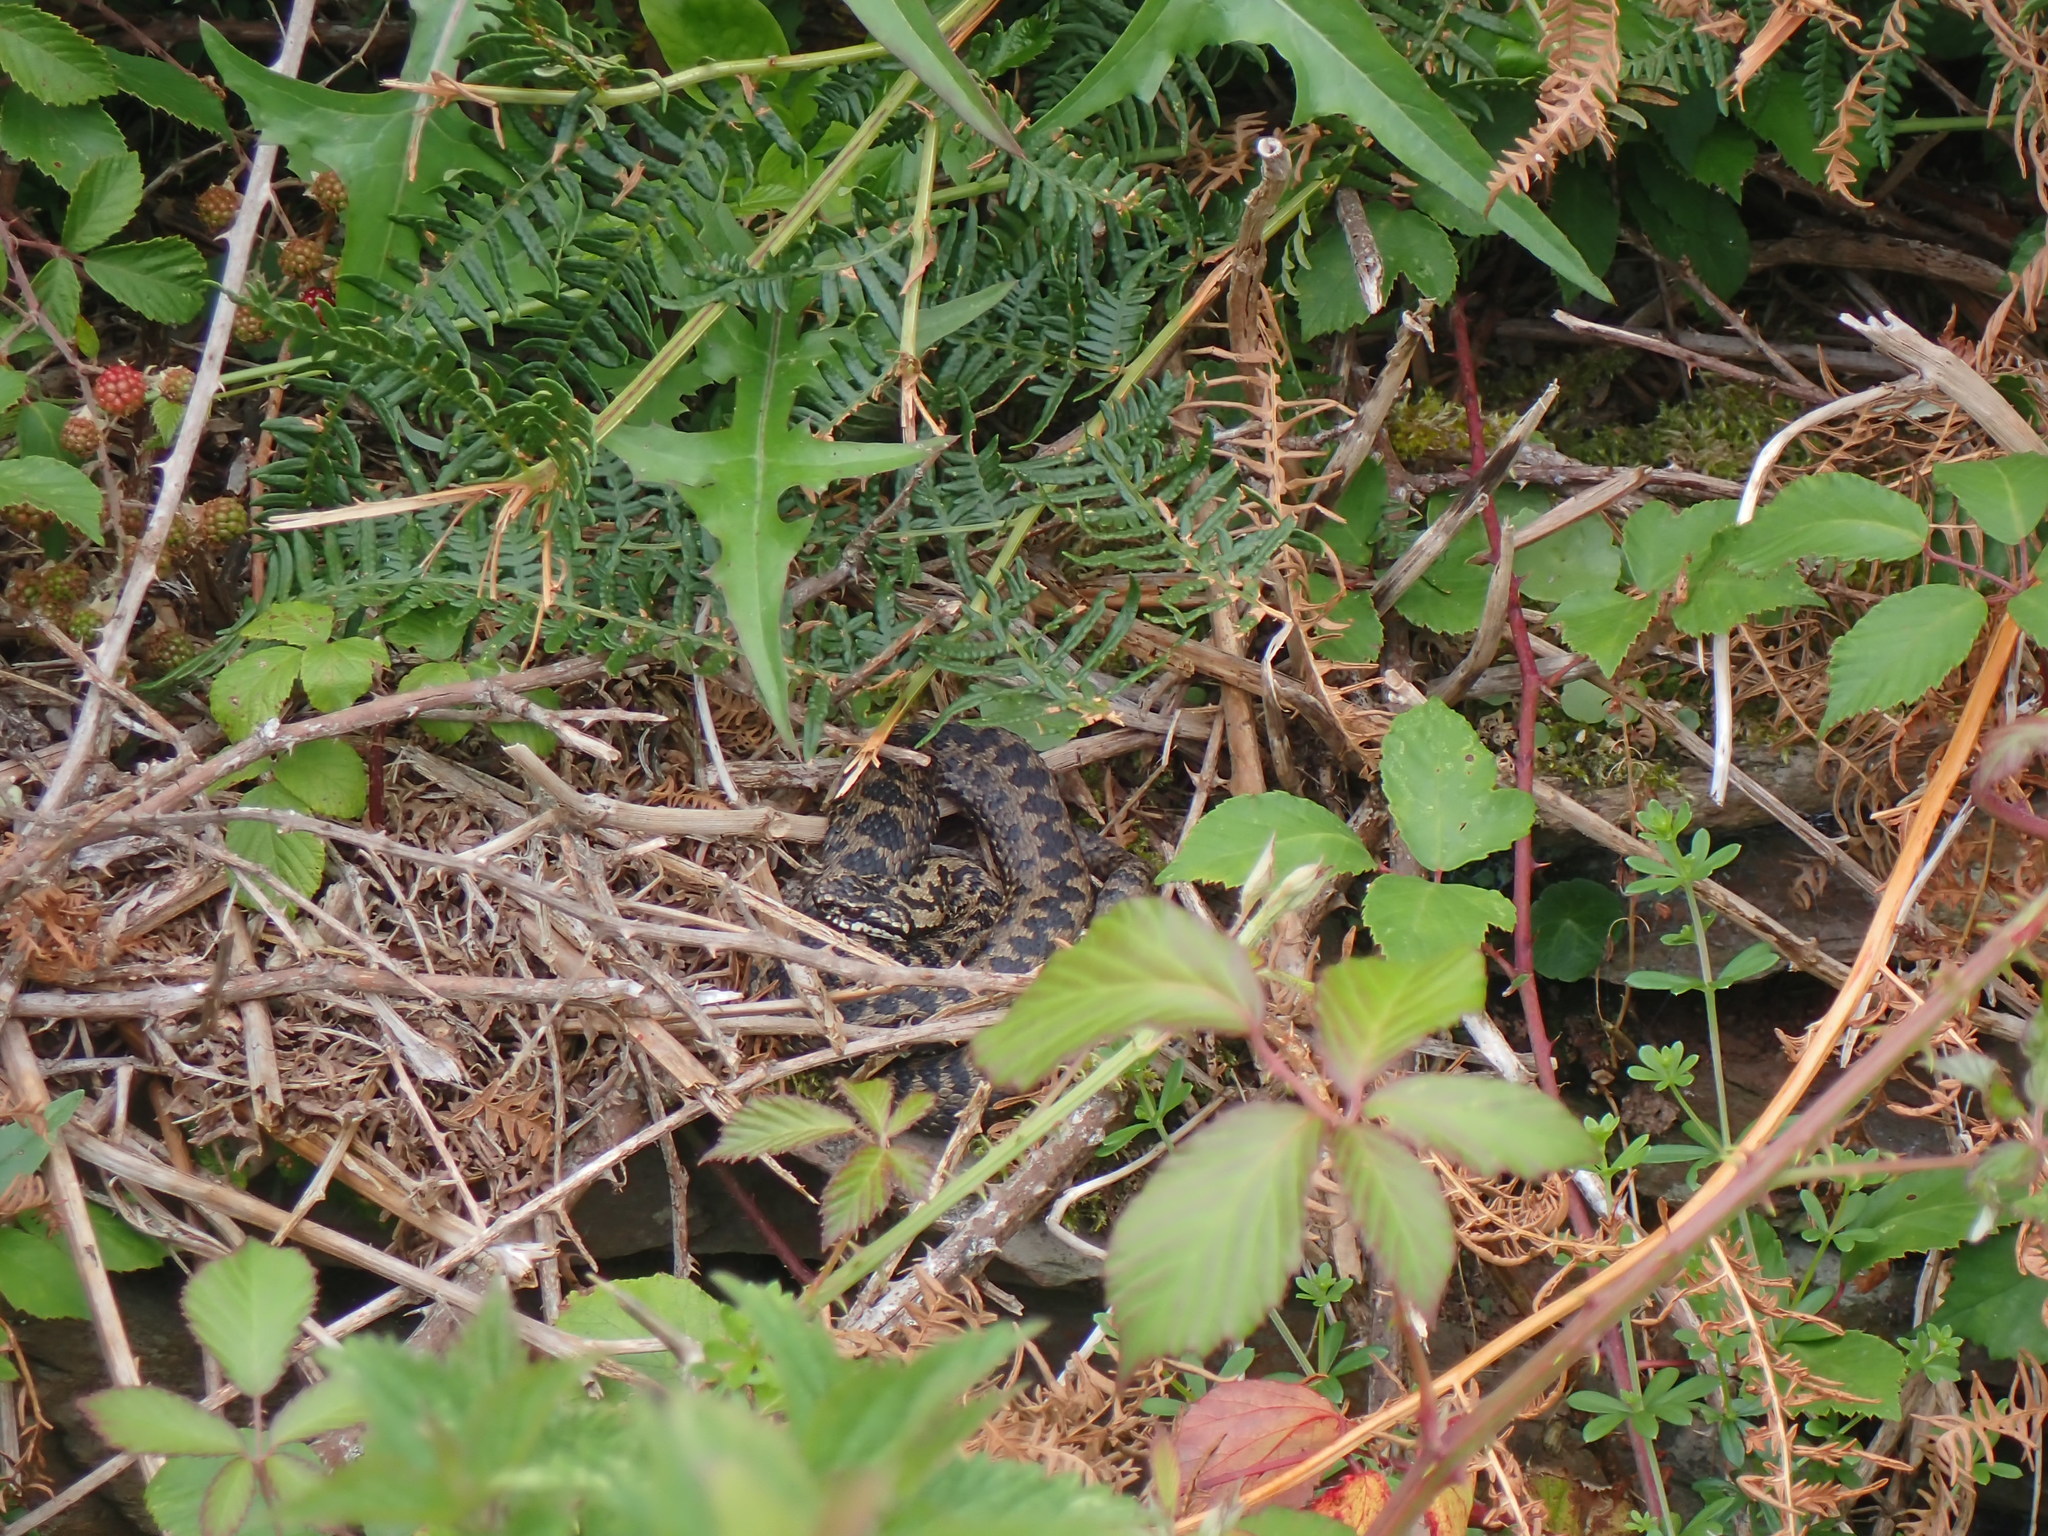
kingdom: Animalia
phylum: Chordata
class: Squamata
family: Viperidae
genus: Vipera
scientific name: Vipera berus
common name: Adder
